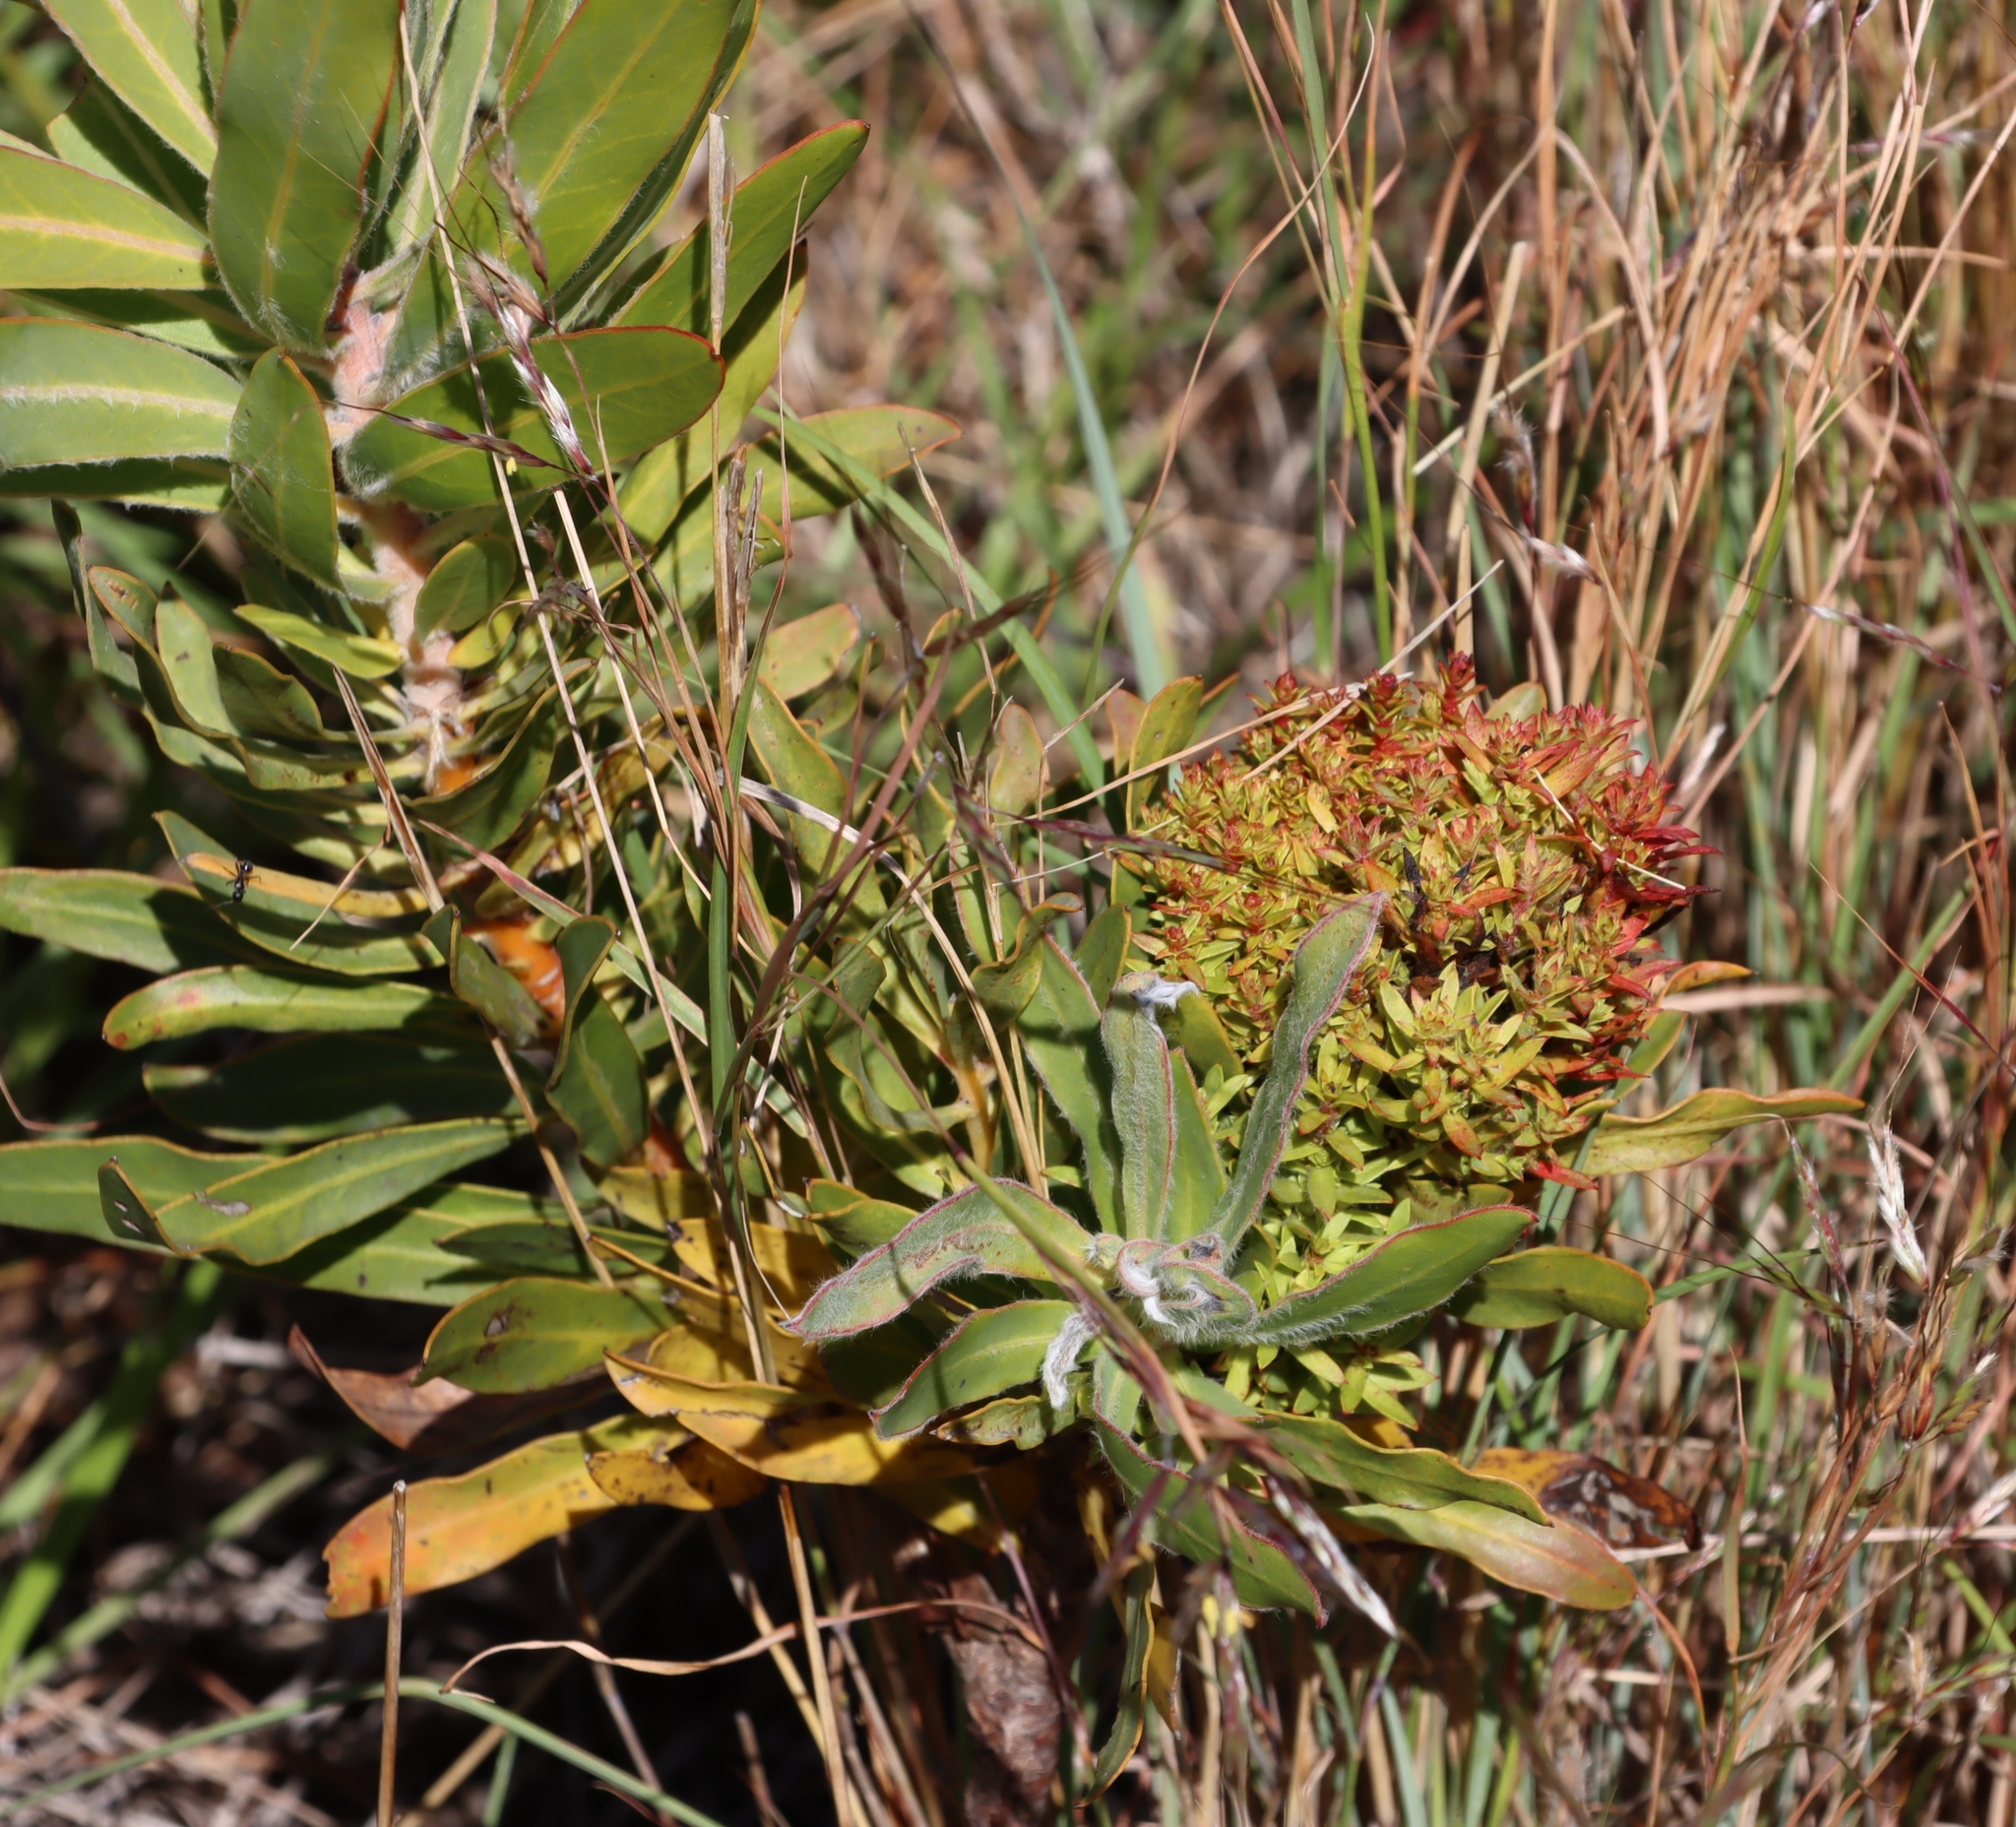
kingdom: Bacteria
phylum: Firmicutes
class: Bacilli
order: Acholeplasmatales
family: Acholeplasmataceae
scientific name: Acholeplasmataceae
